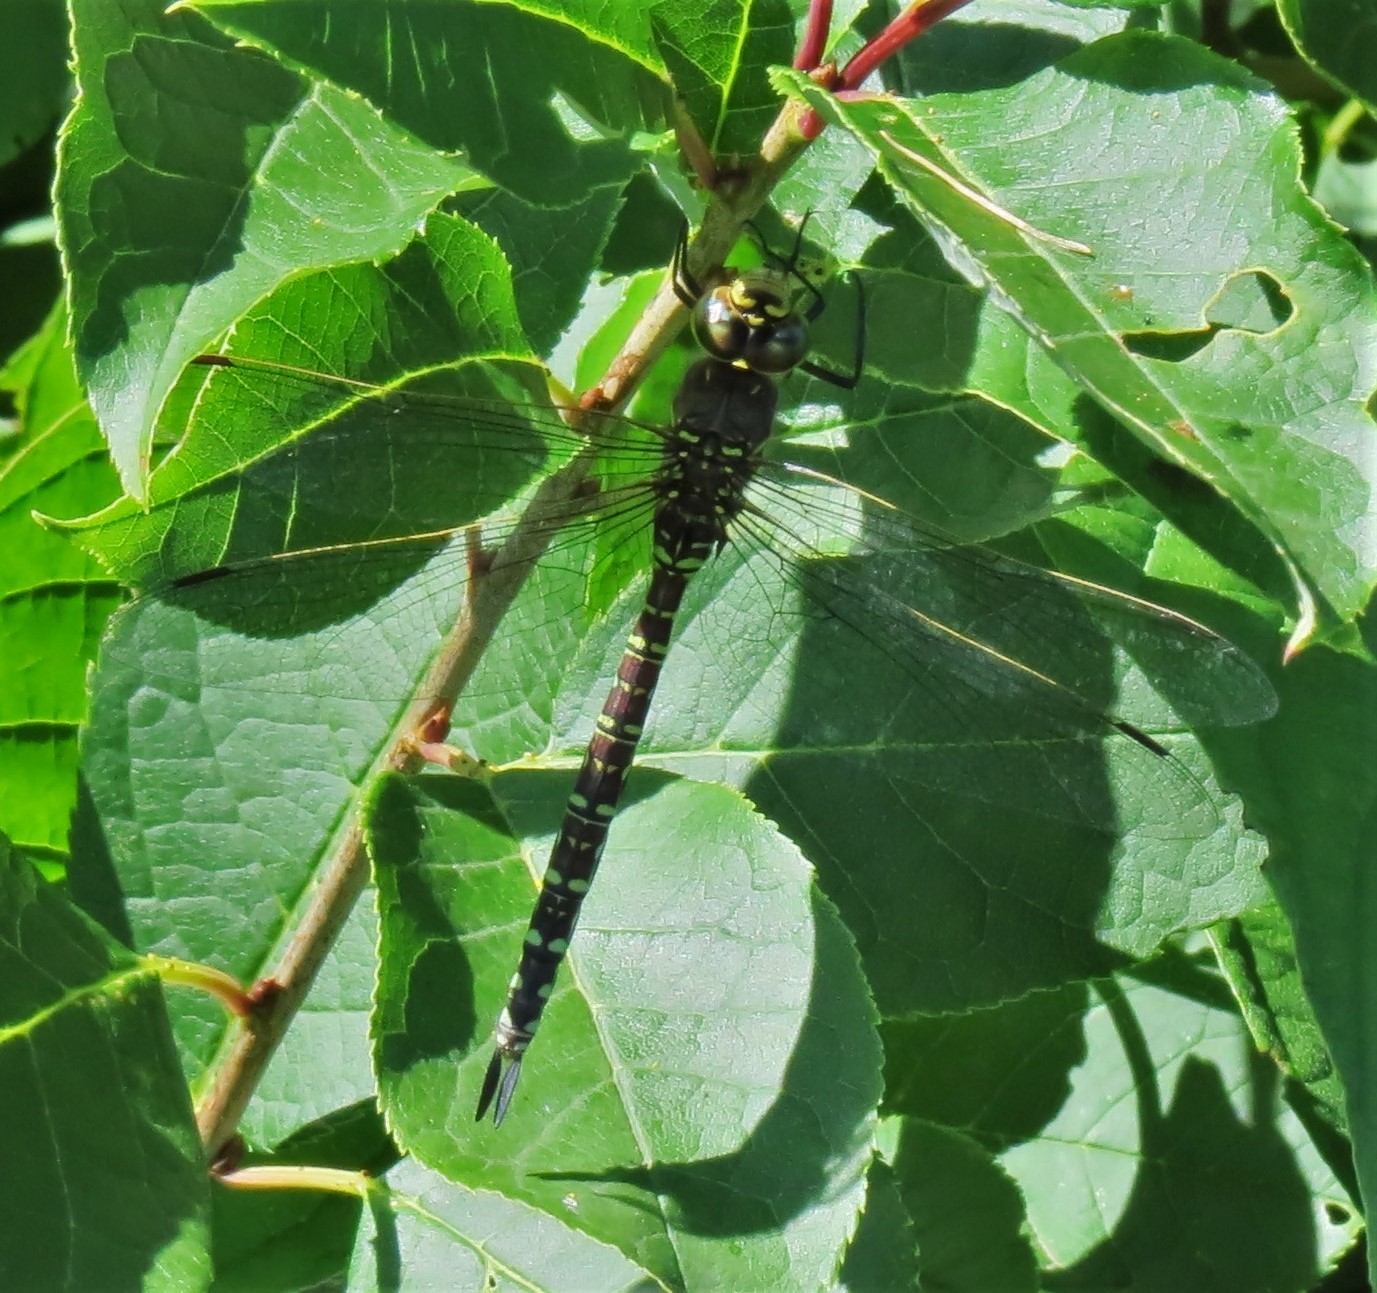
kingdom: Animalia
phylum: Arthropoda
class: Insecta
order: Odonata
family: Aeshnidae
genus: Aeshna
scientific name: Aeshna umbrosa
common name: Shadow darner
